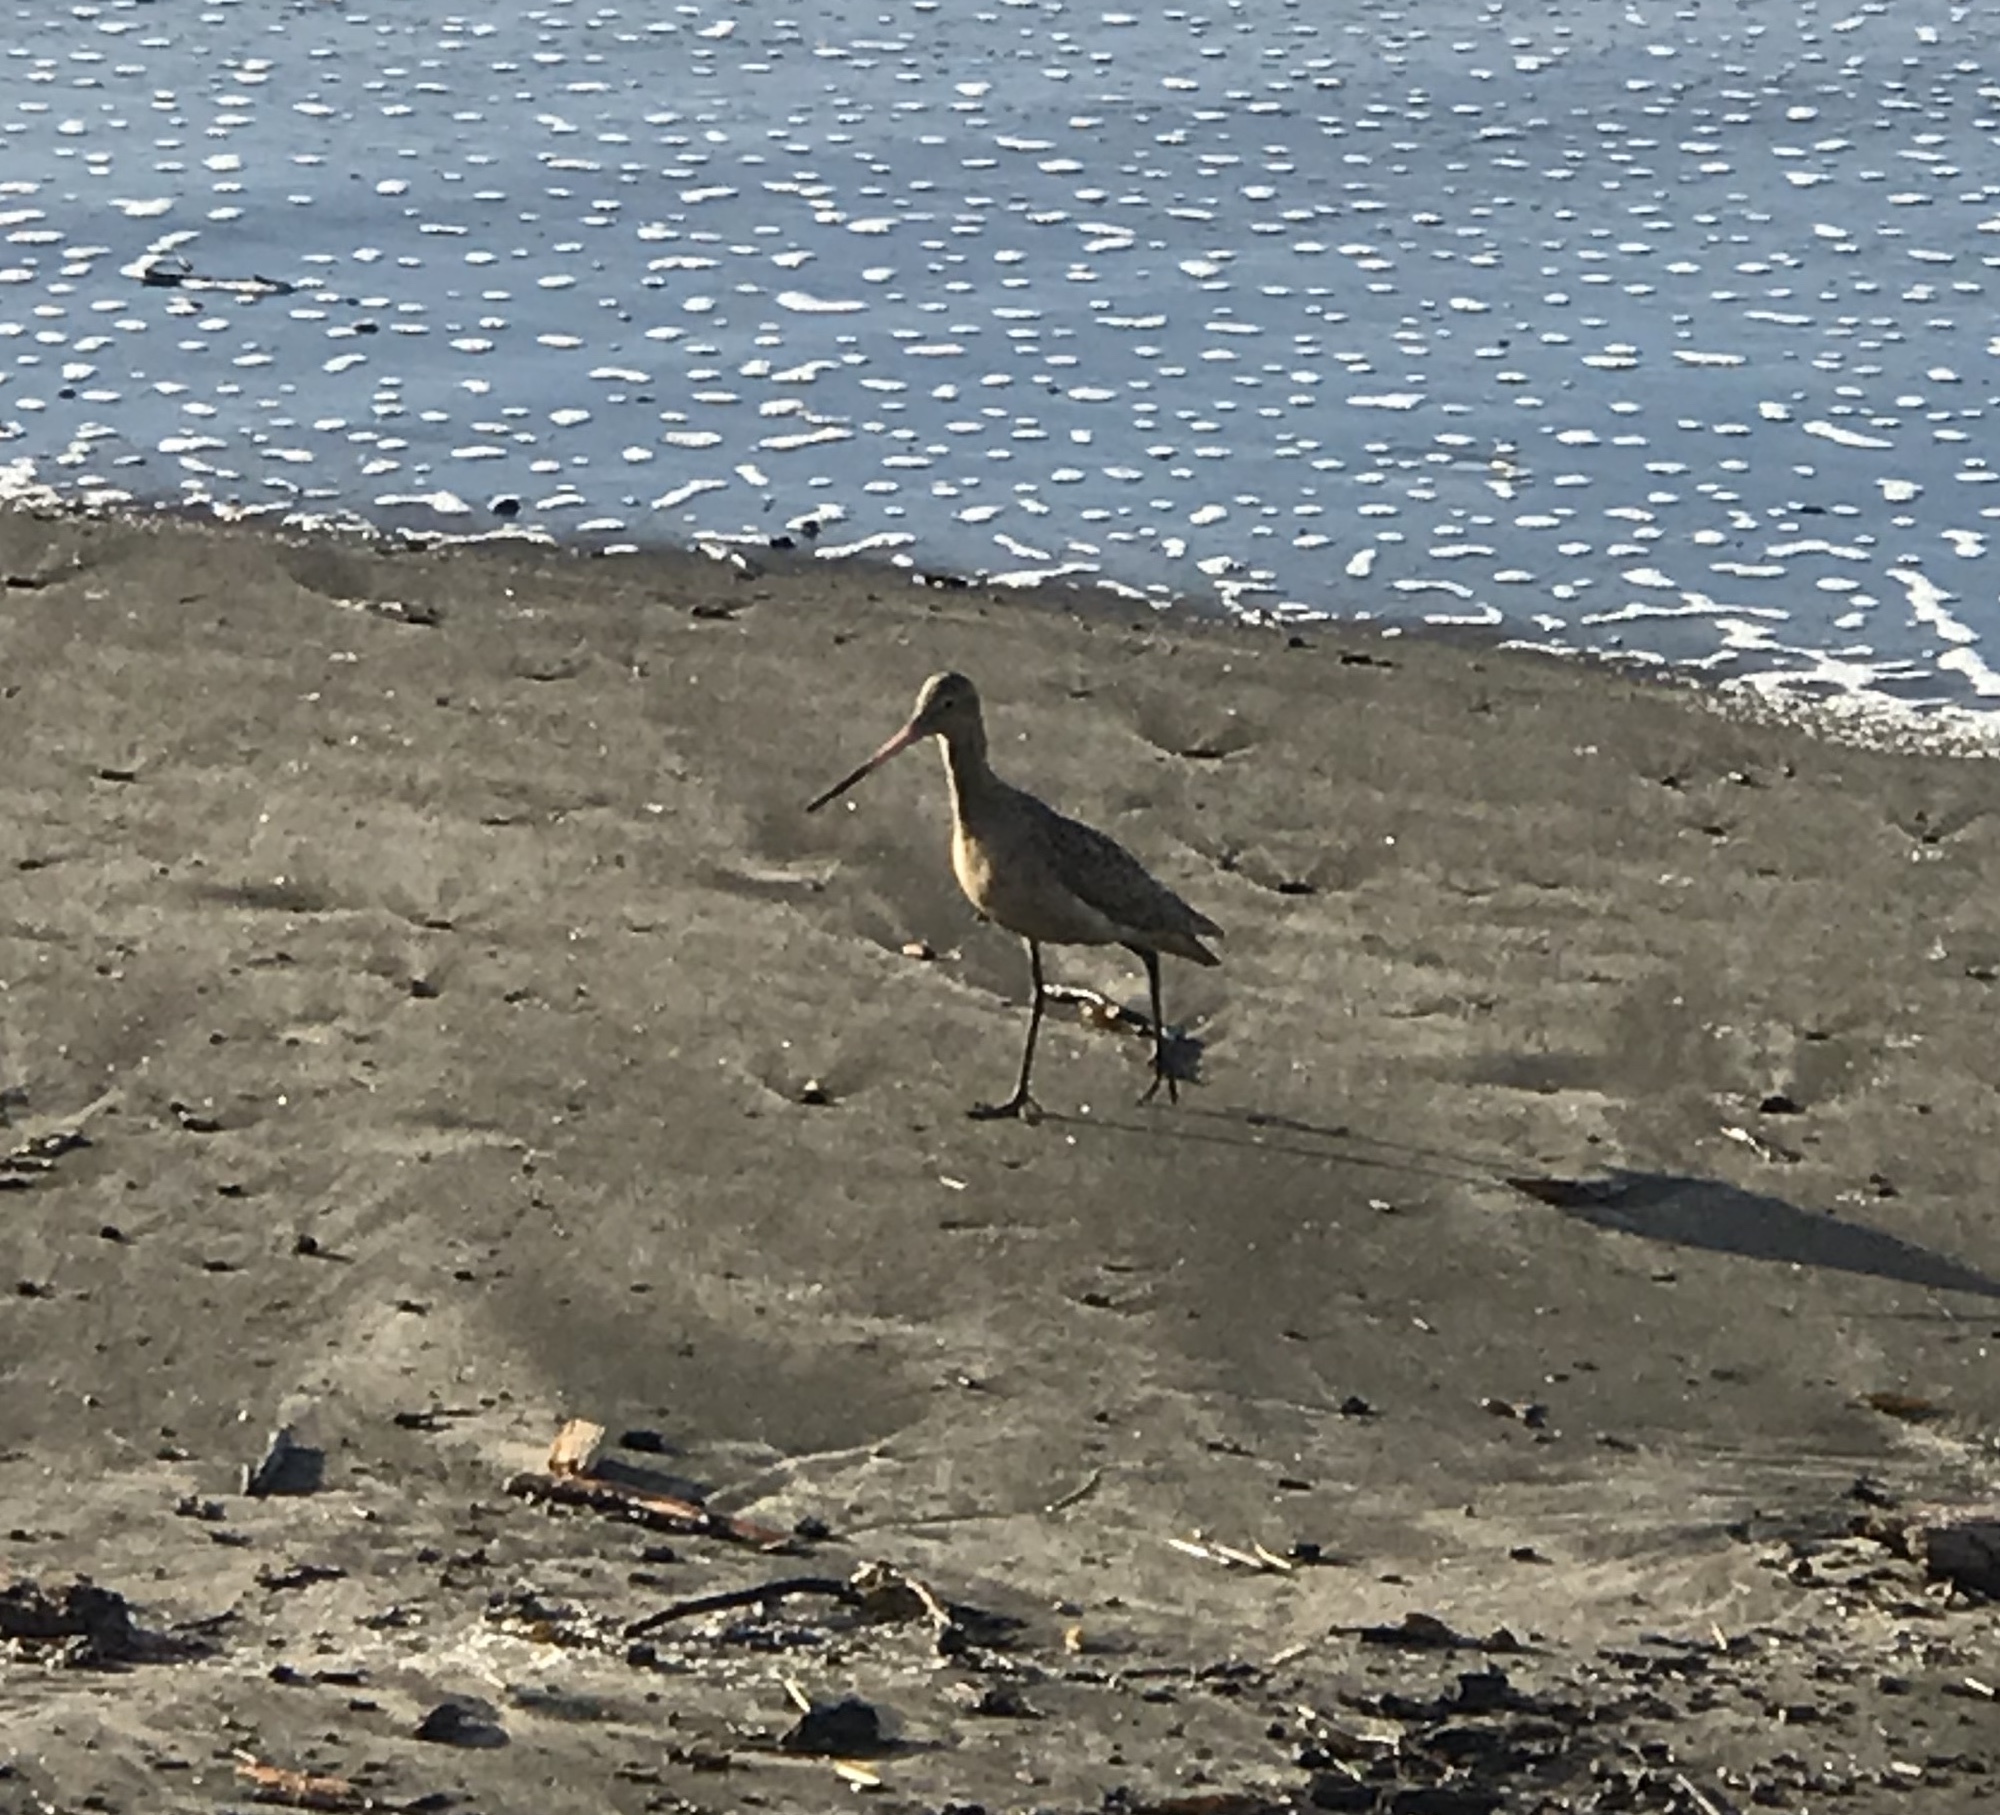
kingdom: Animalia
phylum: Chordata
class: Aves
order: Charadriiformes
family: Scolopacidae
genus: Limosa
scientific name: Limosa fedoa
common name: Marbled godwit
